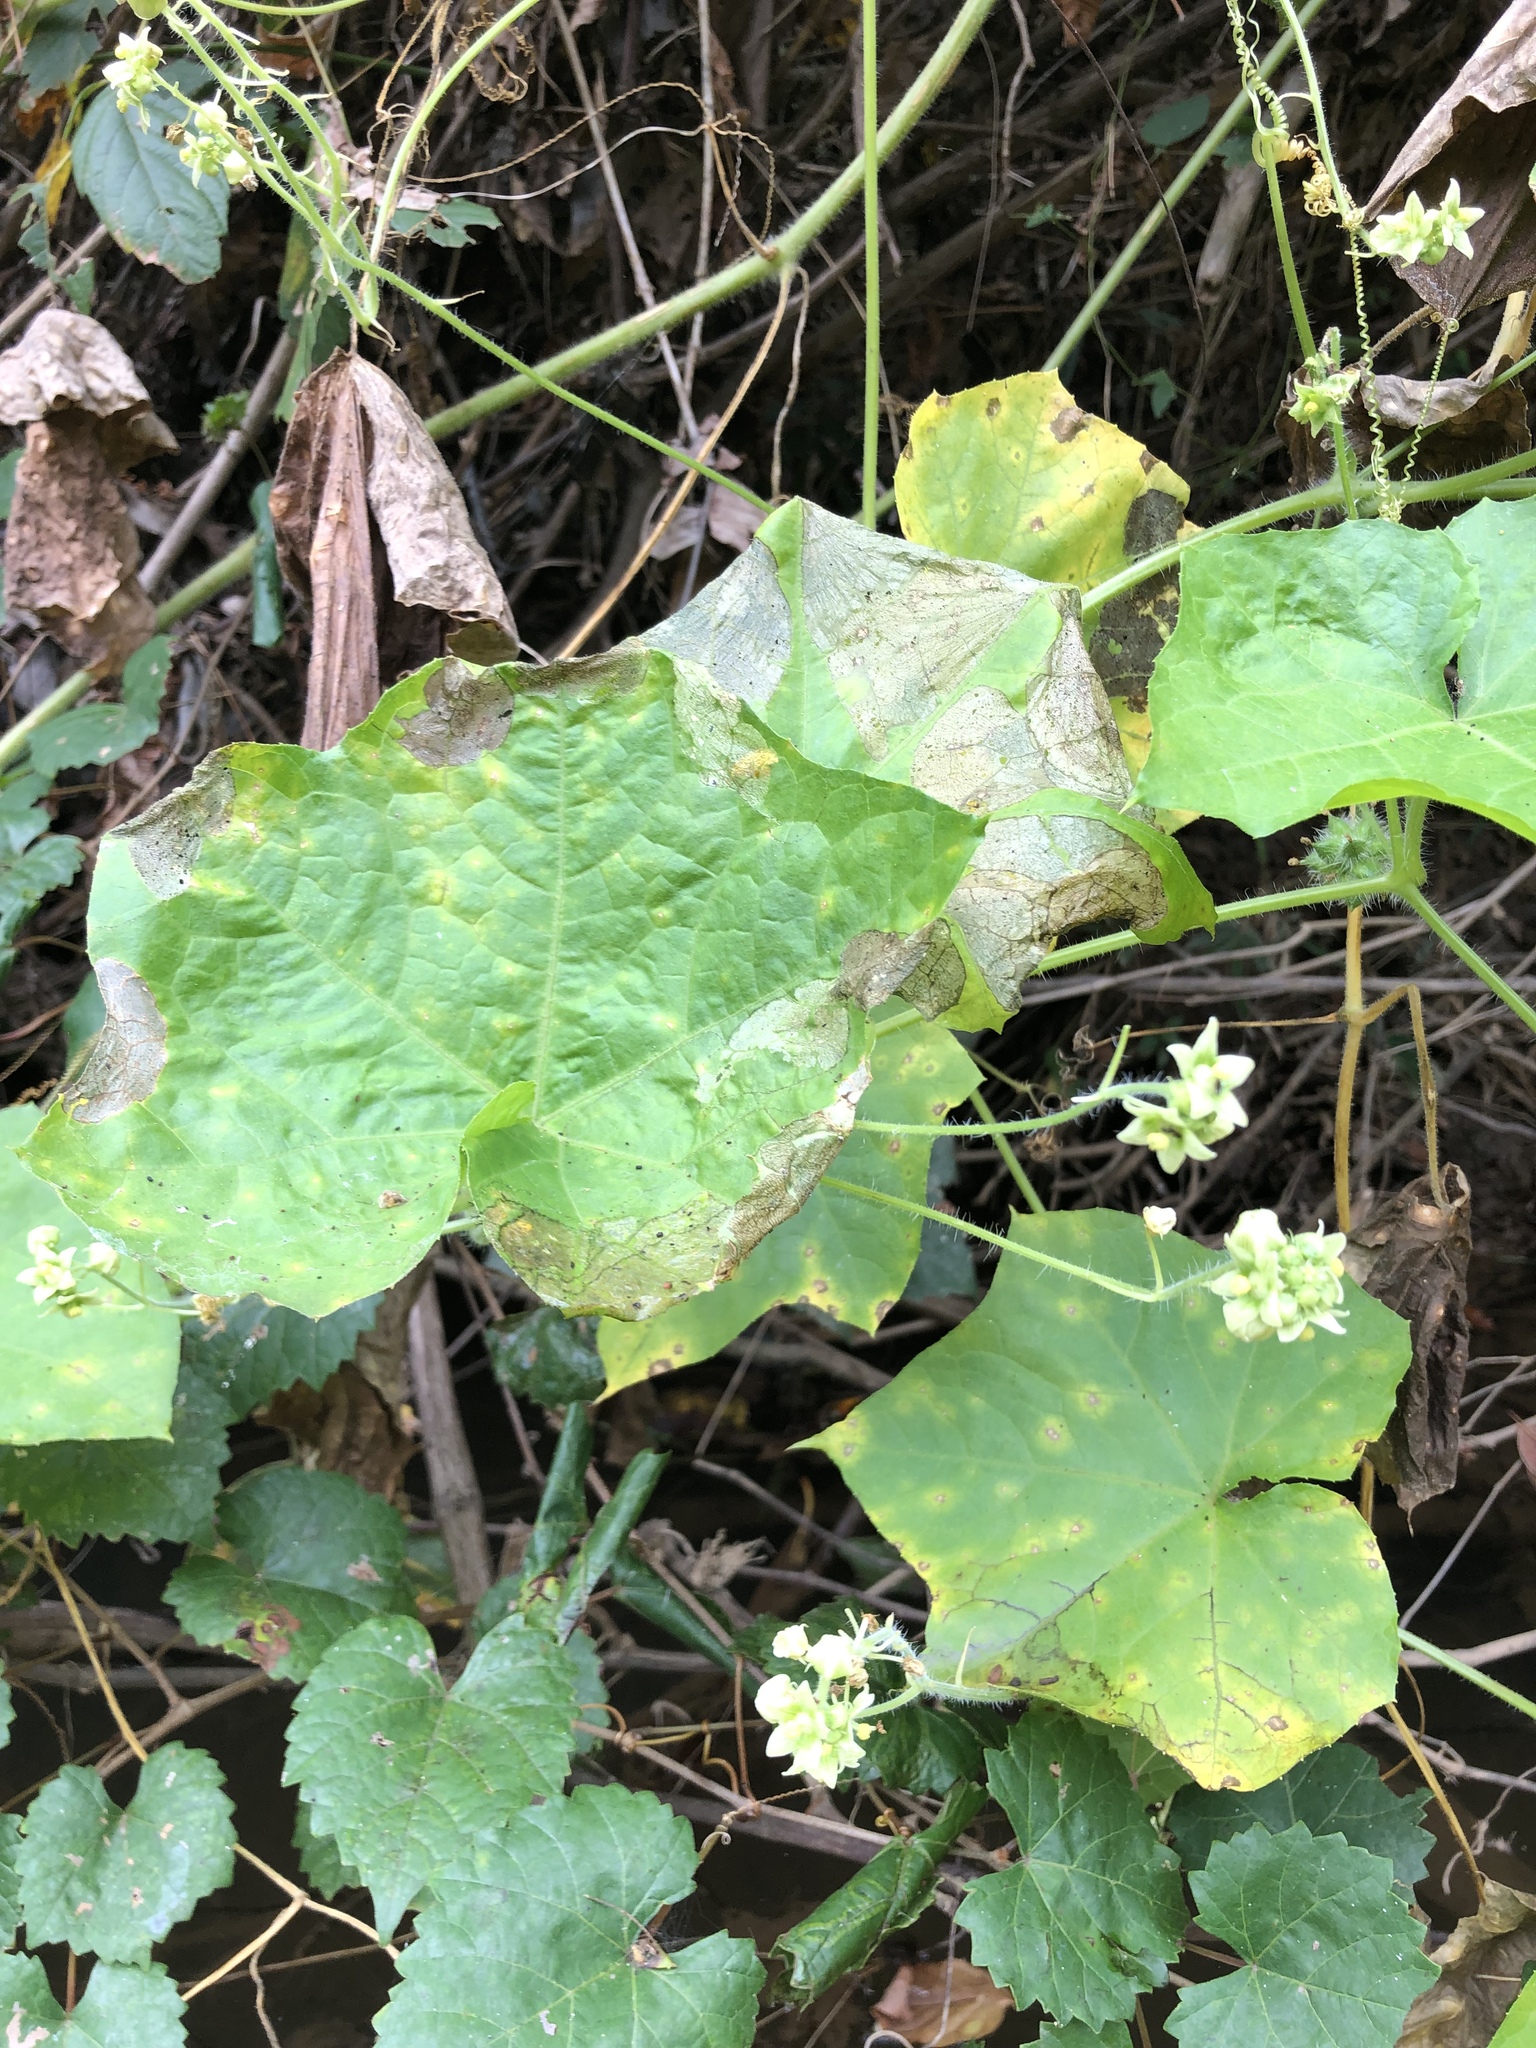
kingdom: Plantae
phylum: Tracheophyta
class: Magnoliopsida
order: Cucurbitales
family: Cucurbitaceae
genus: Sicyos
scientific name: Sicyos angulatus
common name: Angled burr cucumber
